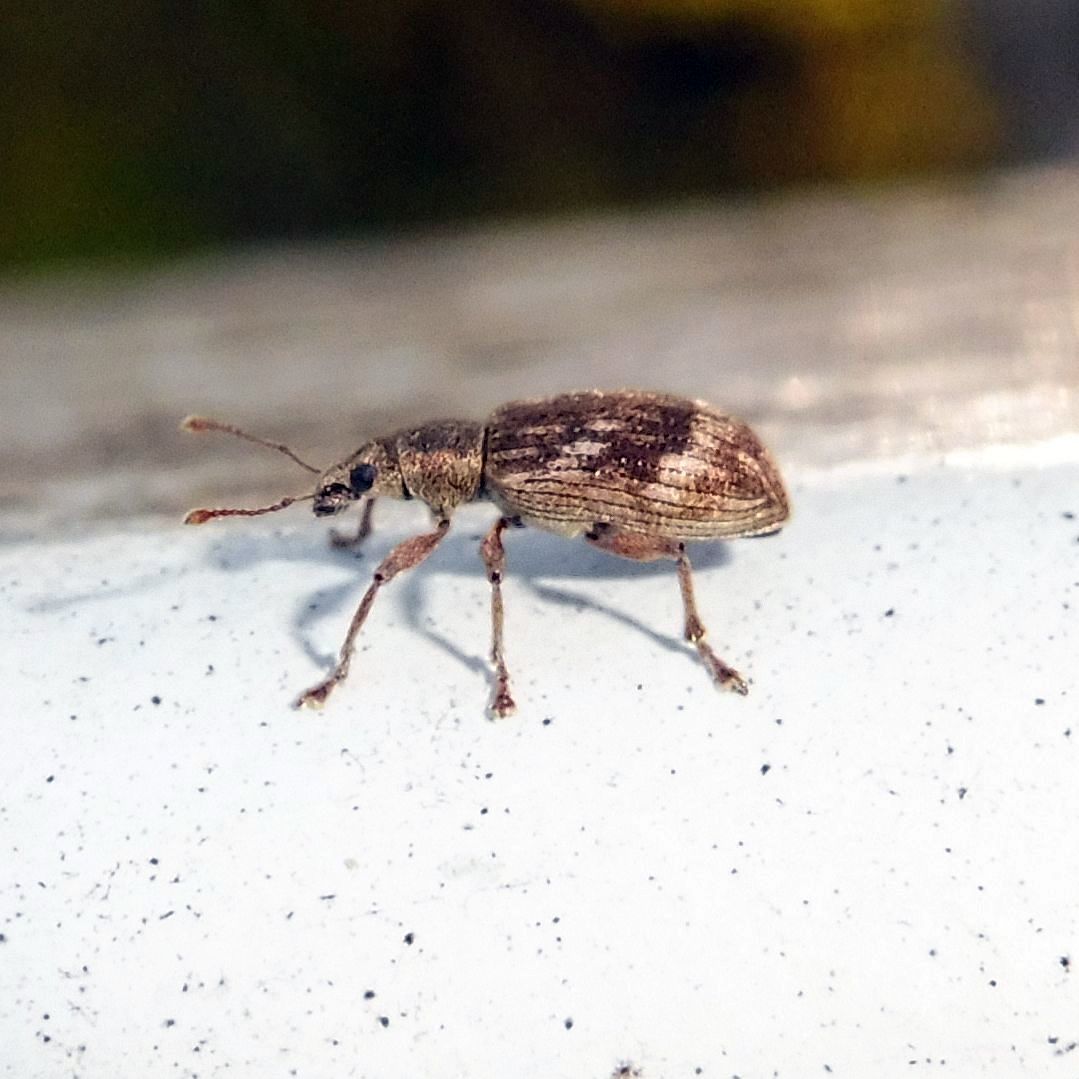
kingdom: Animalia
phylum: Arthropoda
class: Insecta
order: Coleoptera
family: Curculionidae
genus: Polydrusus
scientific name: Polydrusus tereticollis
